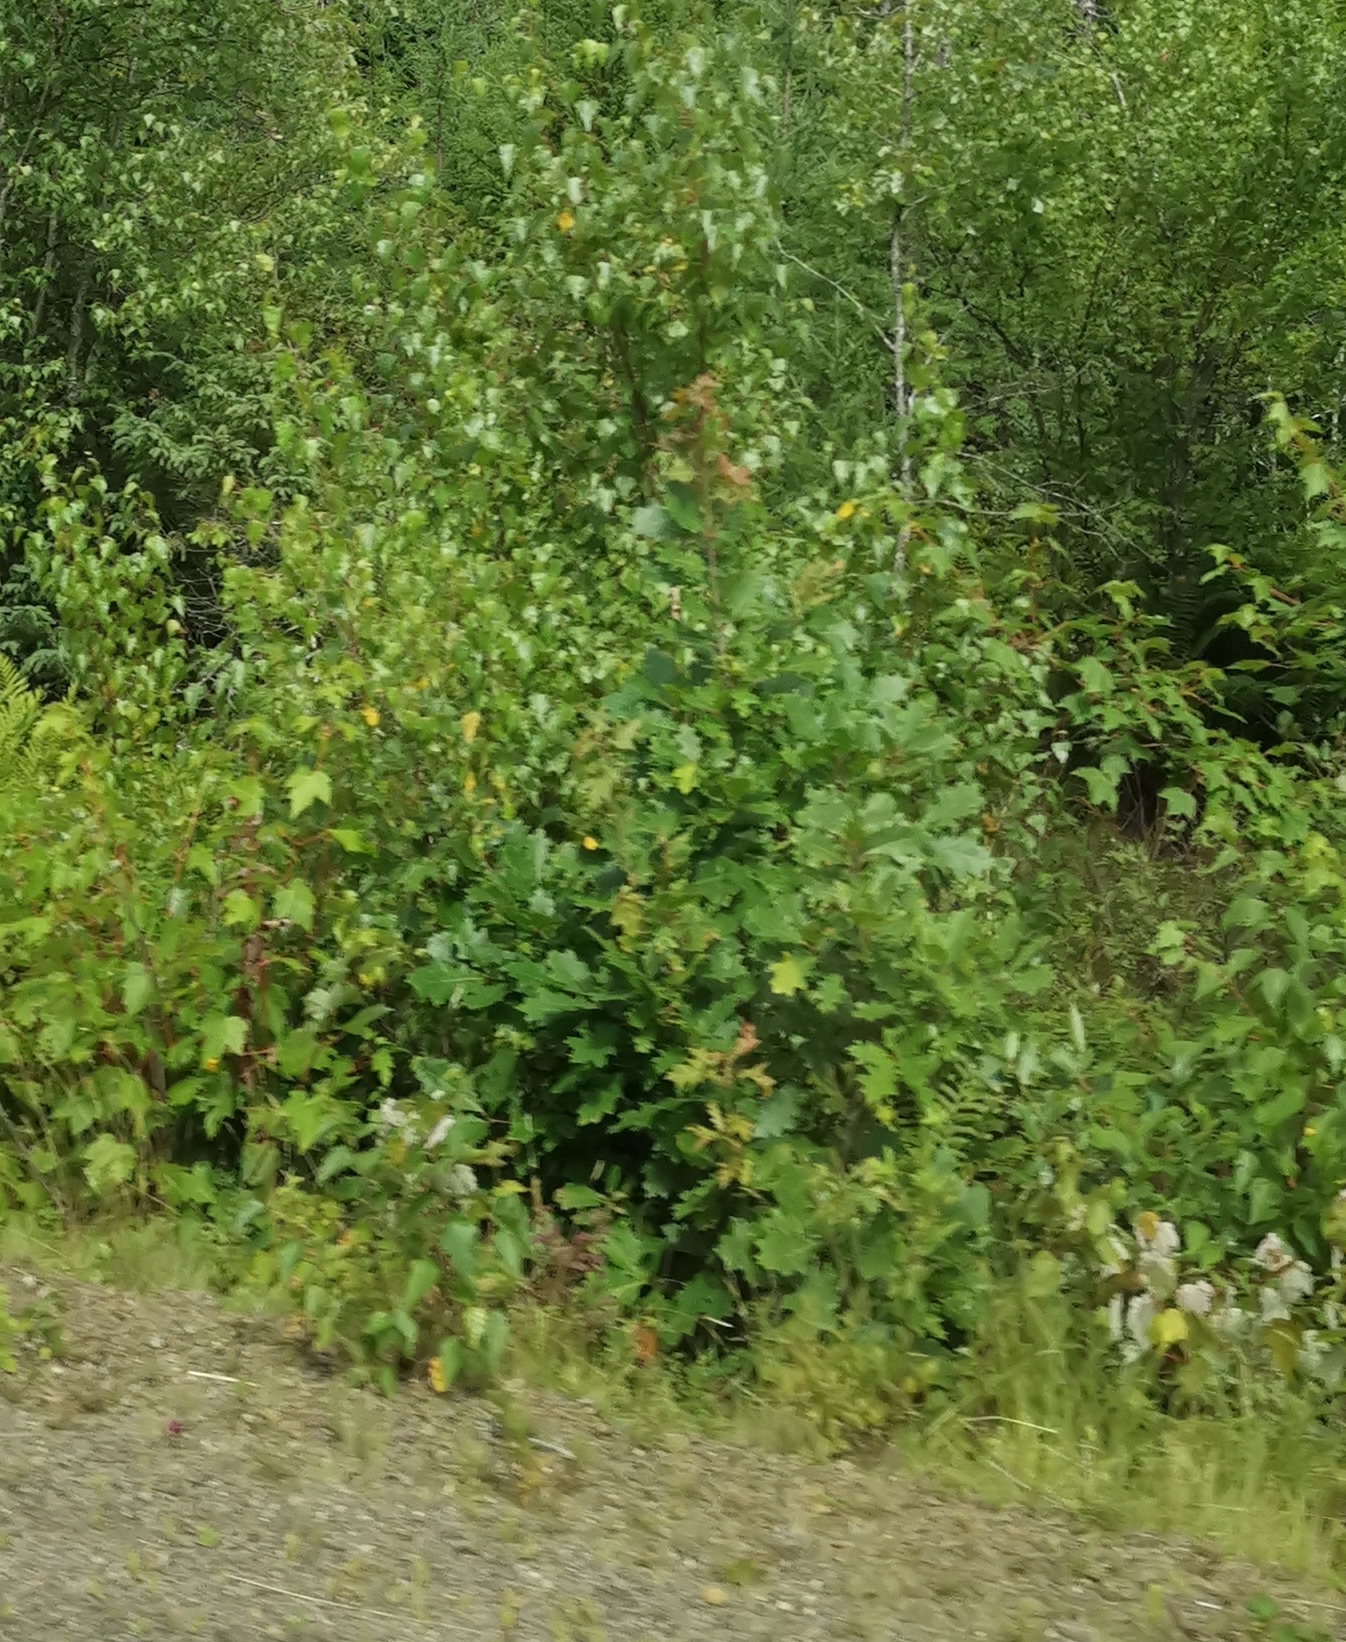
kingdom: Plantae
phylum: Tracheophyta
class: Magnoliopsida
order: Fagales
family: Fagaceae
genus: Quercus
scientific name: Quercus robur
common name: Pedunculate oak
